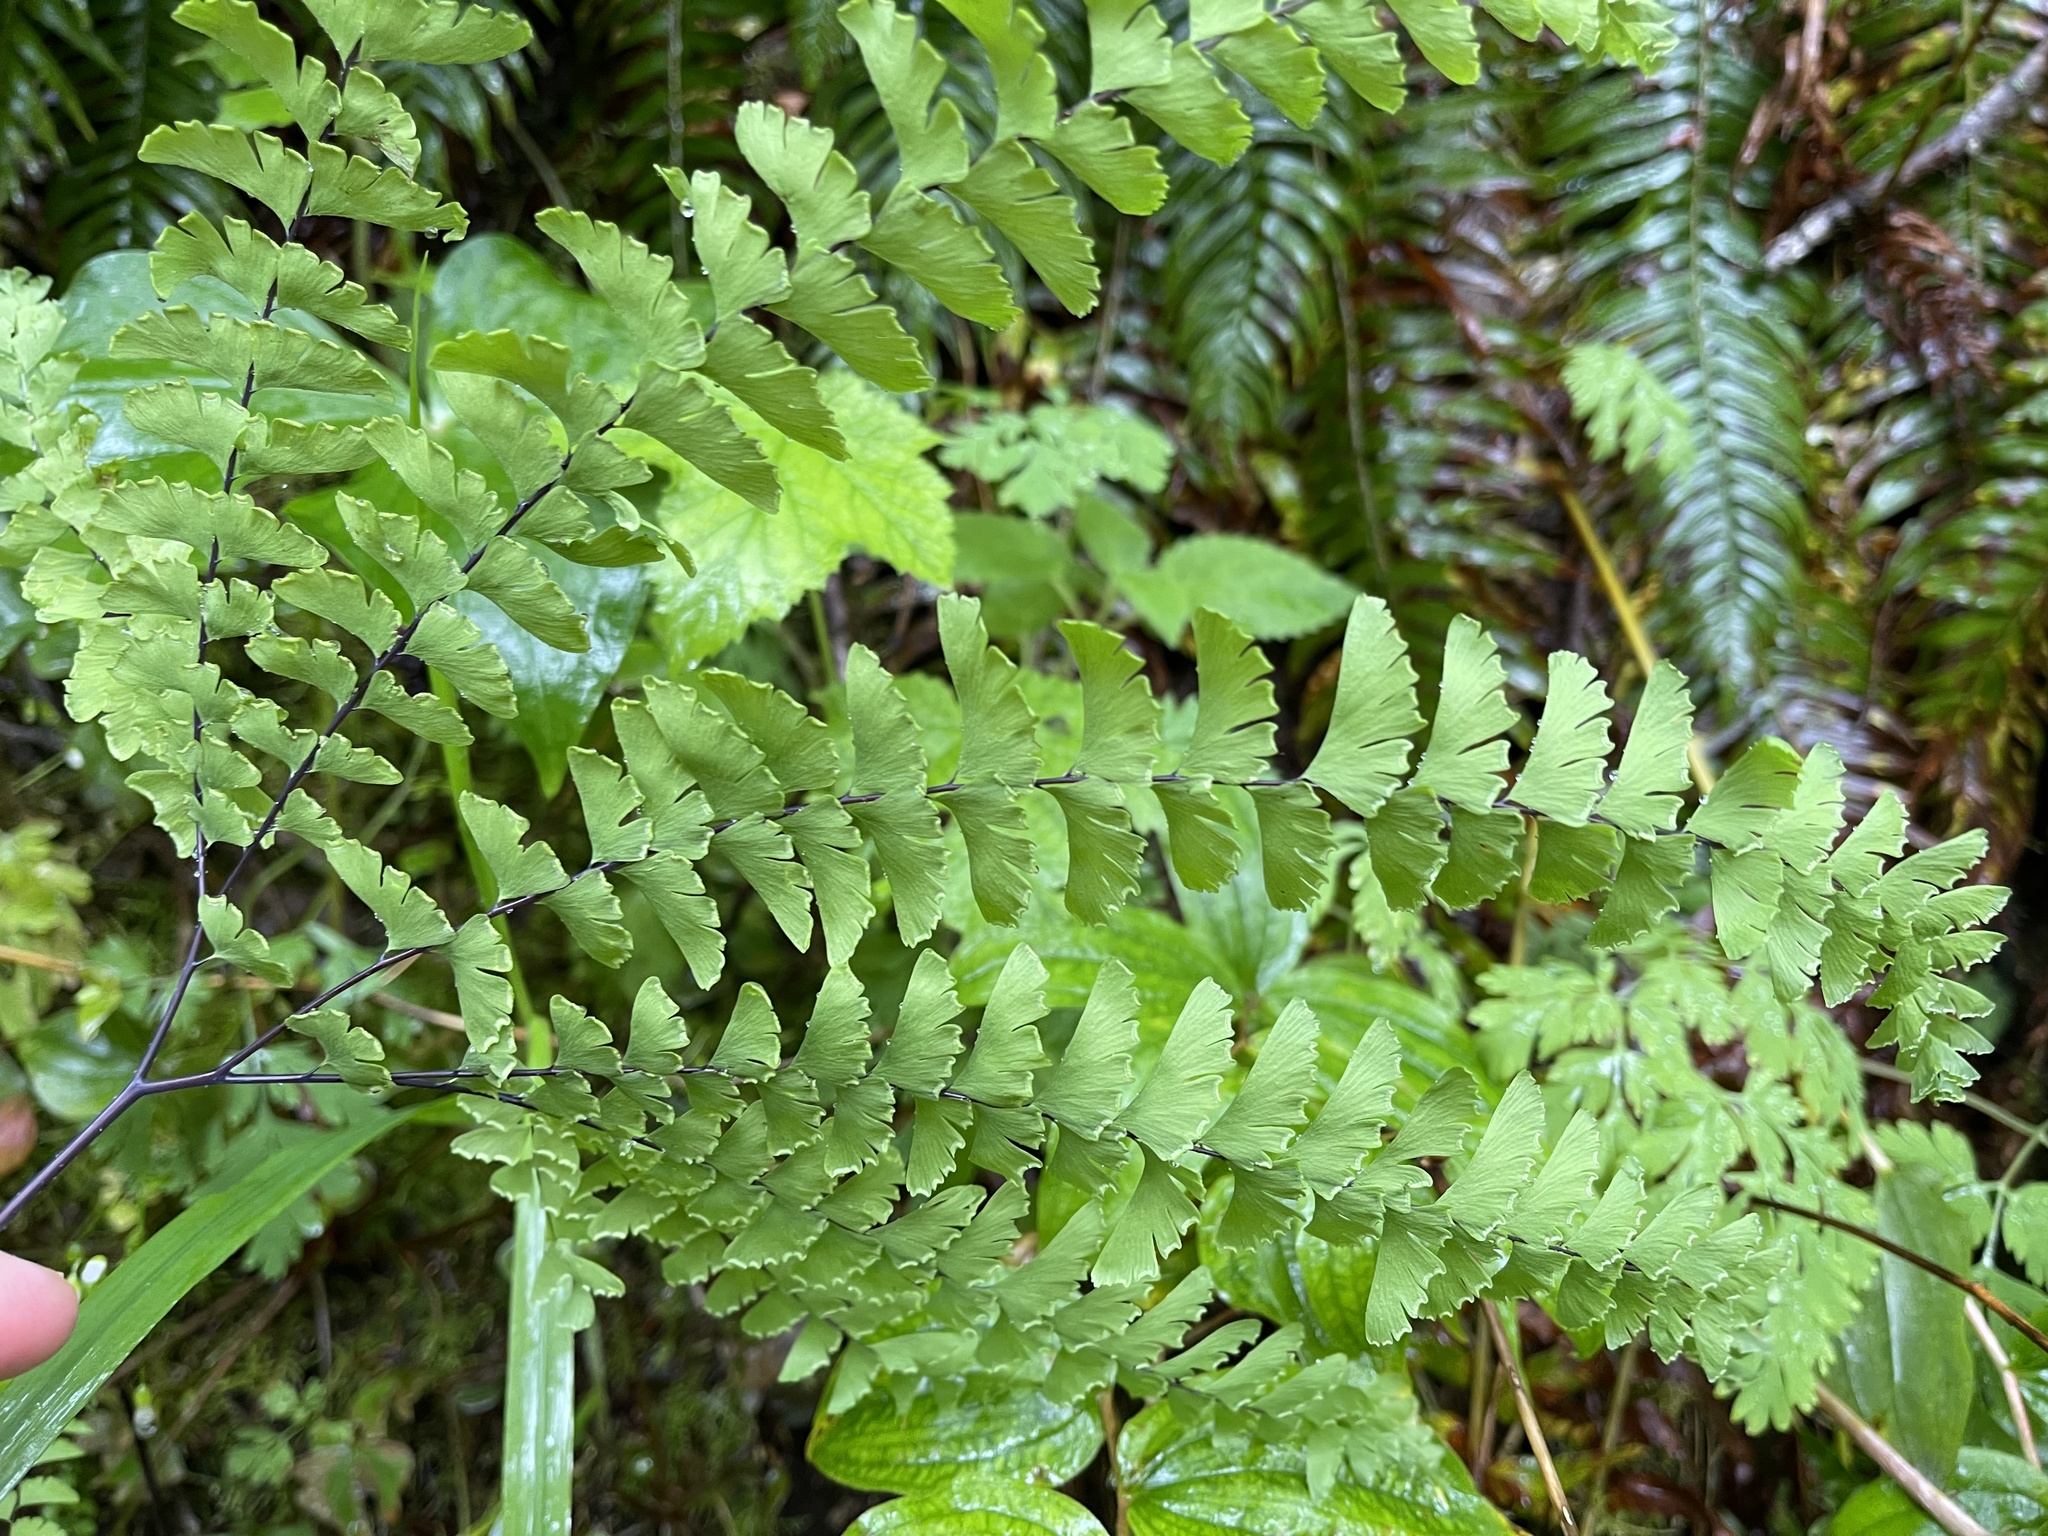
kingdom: Plantae
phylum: Tracheophyta
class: Polypodiopsida
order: Polypodiales
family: Pteridaceae
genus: Adiantum
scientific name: Adiantum aleuticum
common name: Aleutian maidenhair fern
